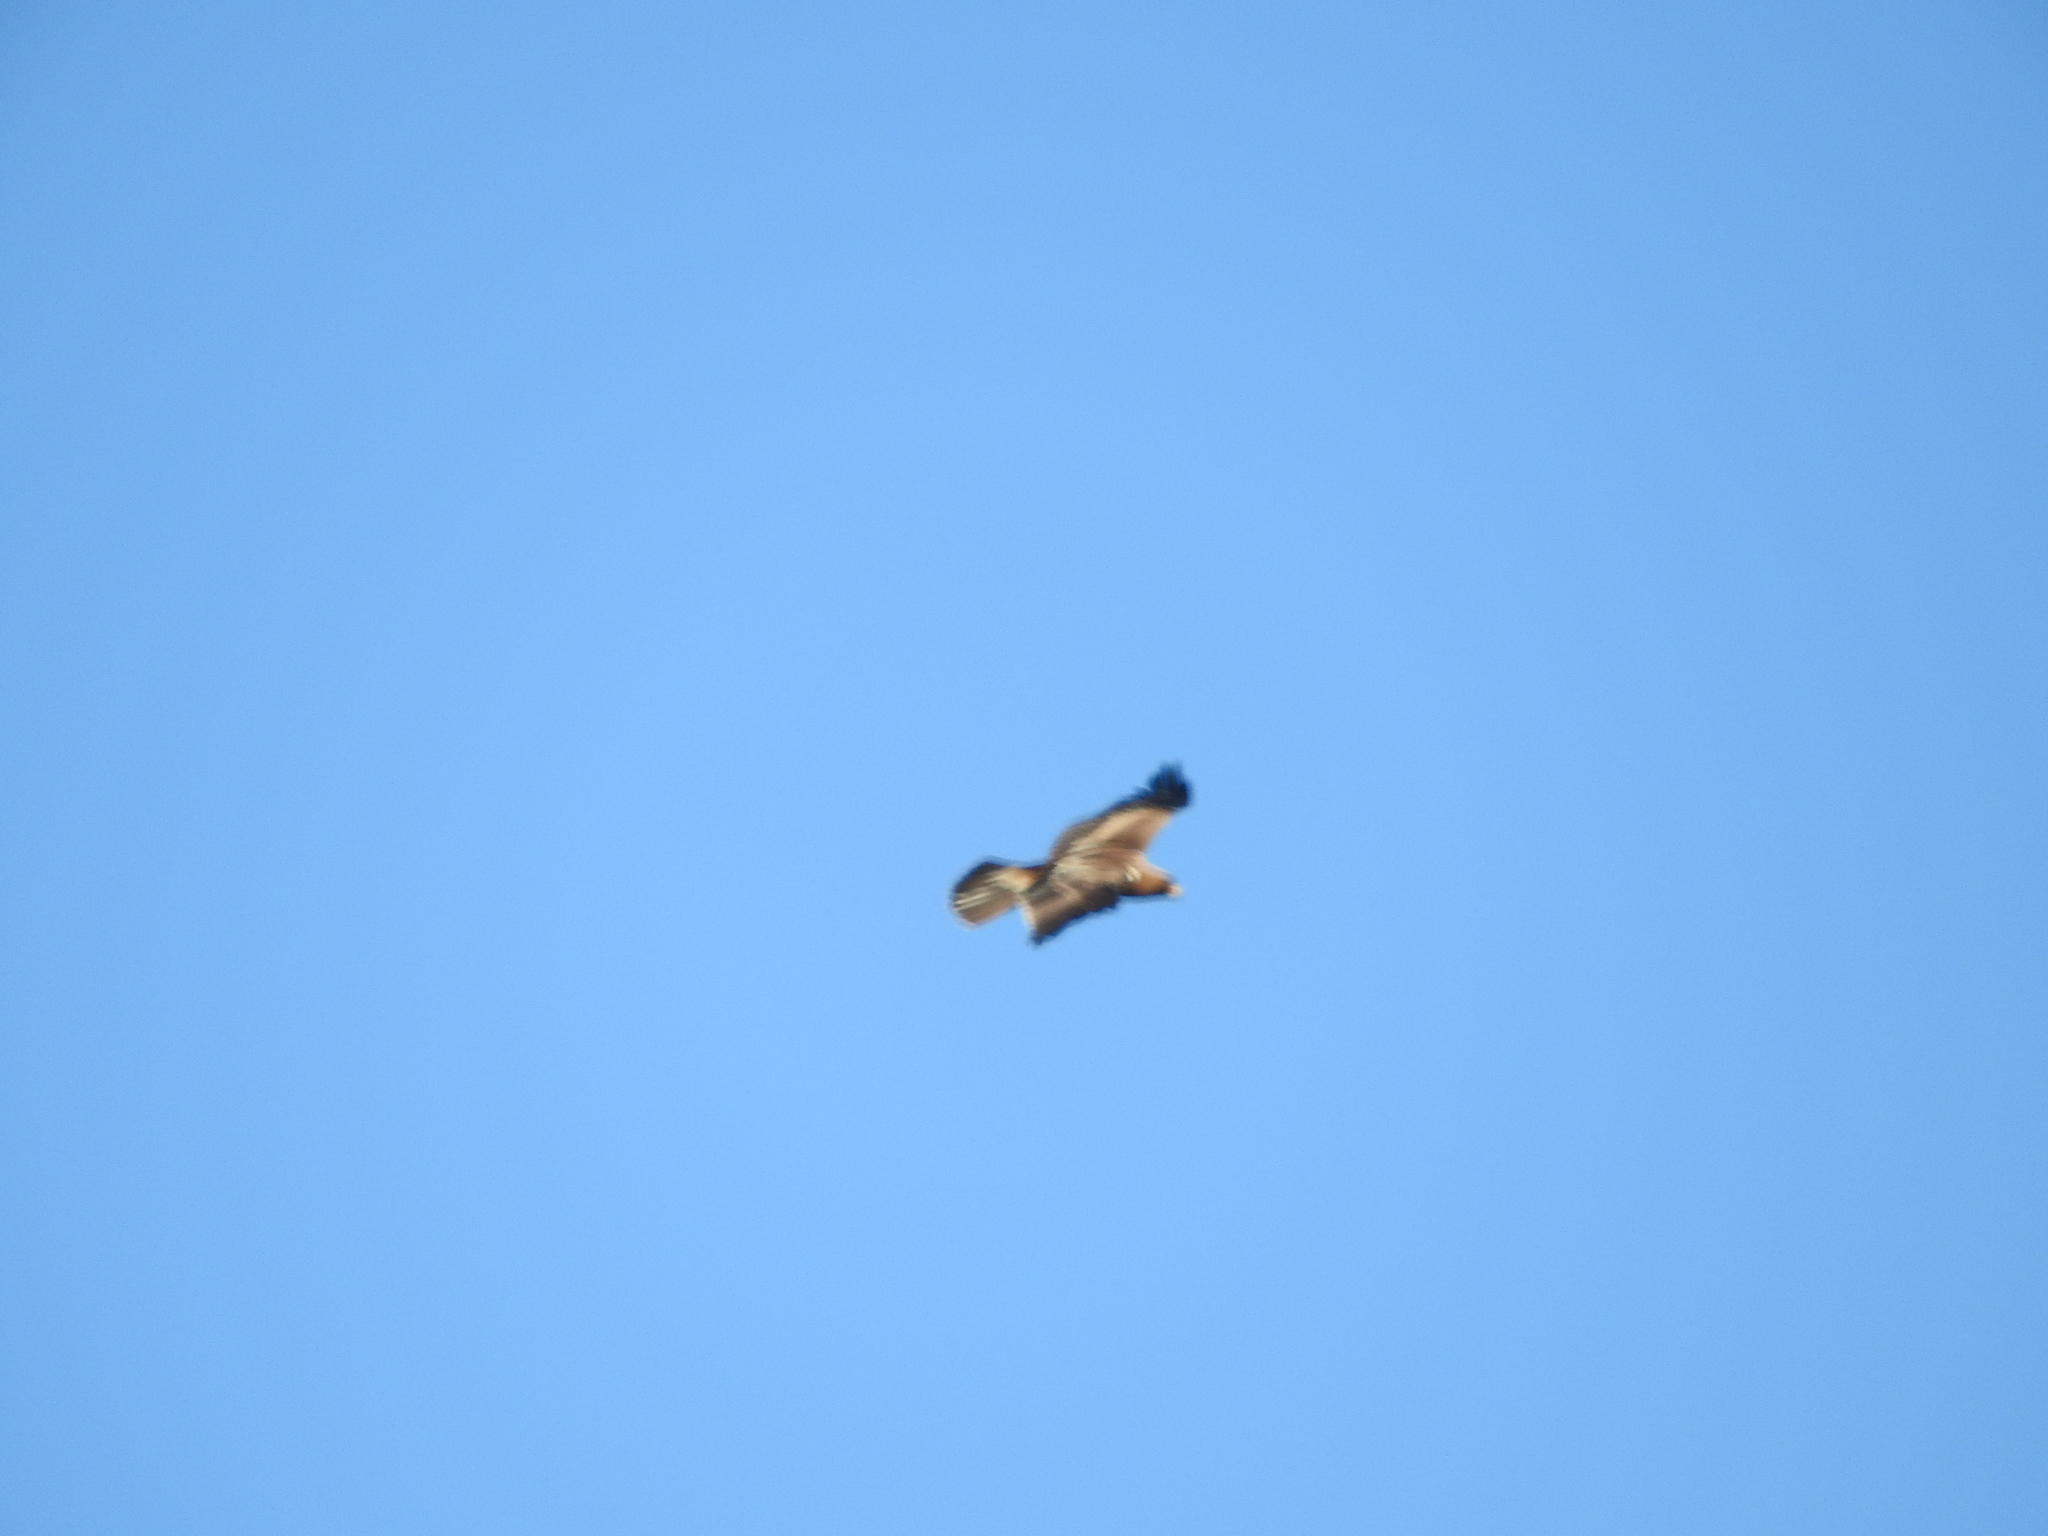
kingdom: Animalia
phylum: Chordata
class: Aves
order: Accipitriformes
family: Accipitridae
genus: Hieraaetus
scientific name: Hieraaetus pennatus
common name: Booted eagle
